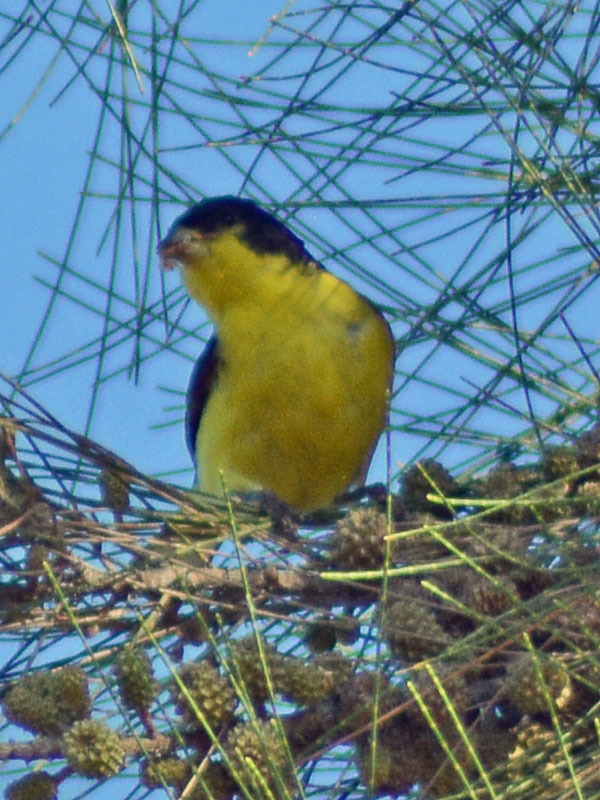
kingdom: Animalia
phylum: Chordata
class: Aves
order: Passeriformes
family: Fringillidae
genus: Spinus
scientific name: Spinus psaltria
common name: Lesser goldfinch
